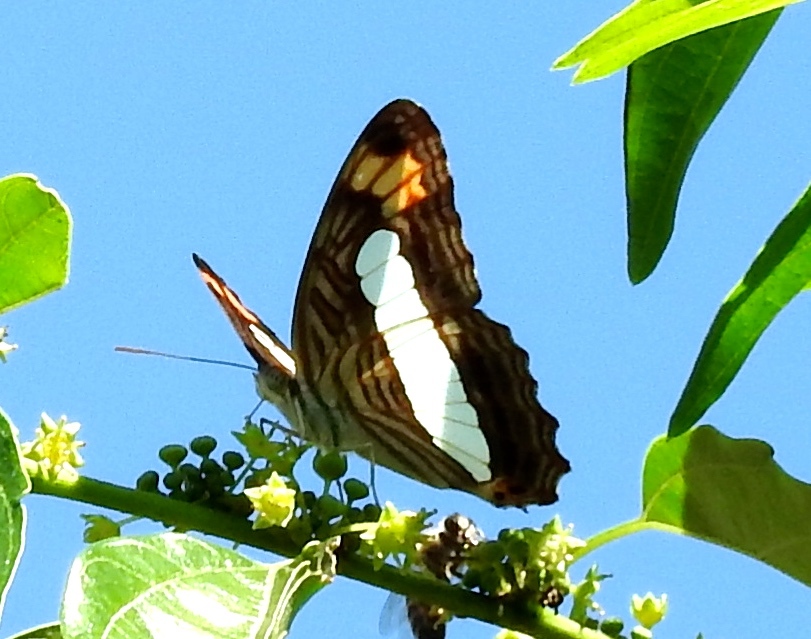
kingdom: Animalia
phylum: Arthropoda
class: Insecta
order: Lepidoptera
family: Nymphalidae
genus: Limenitis
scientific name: Limenitis iphiclus
